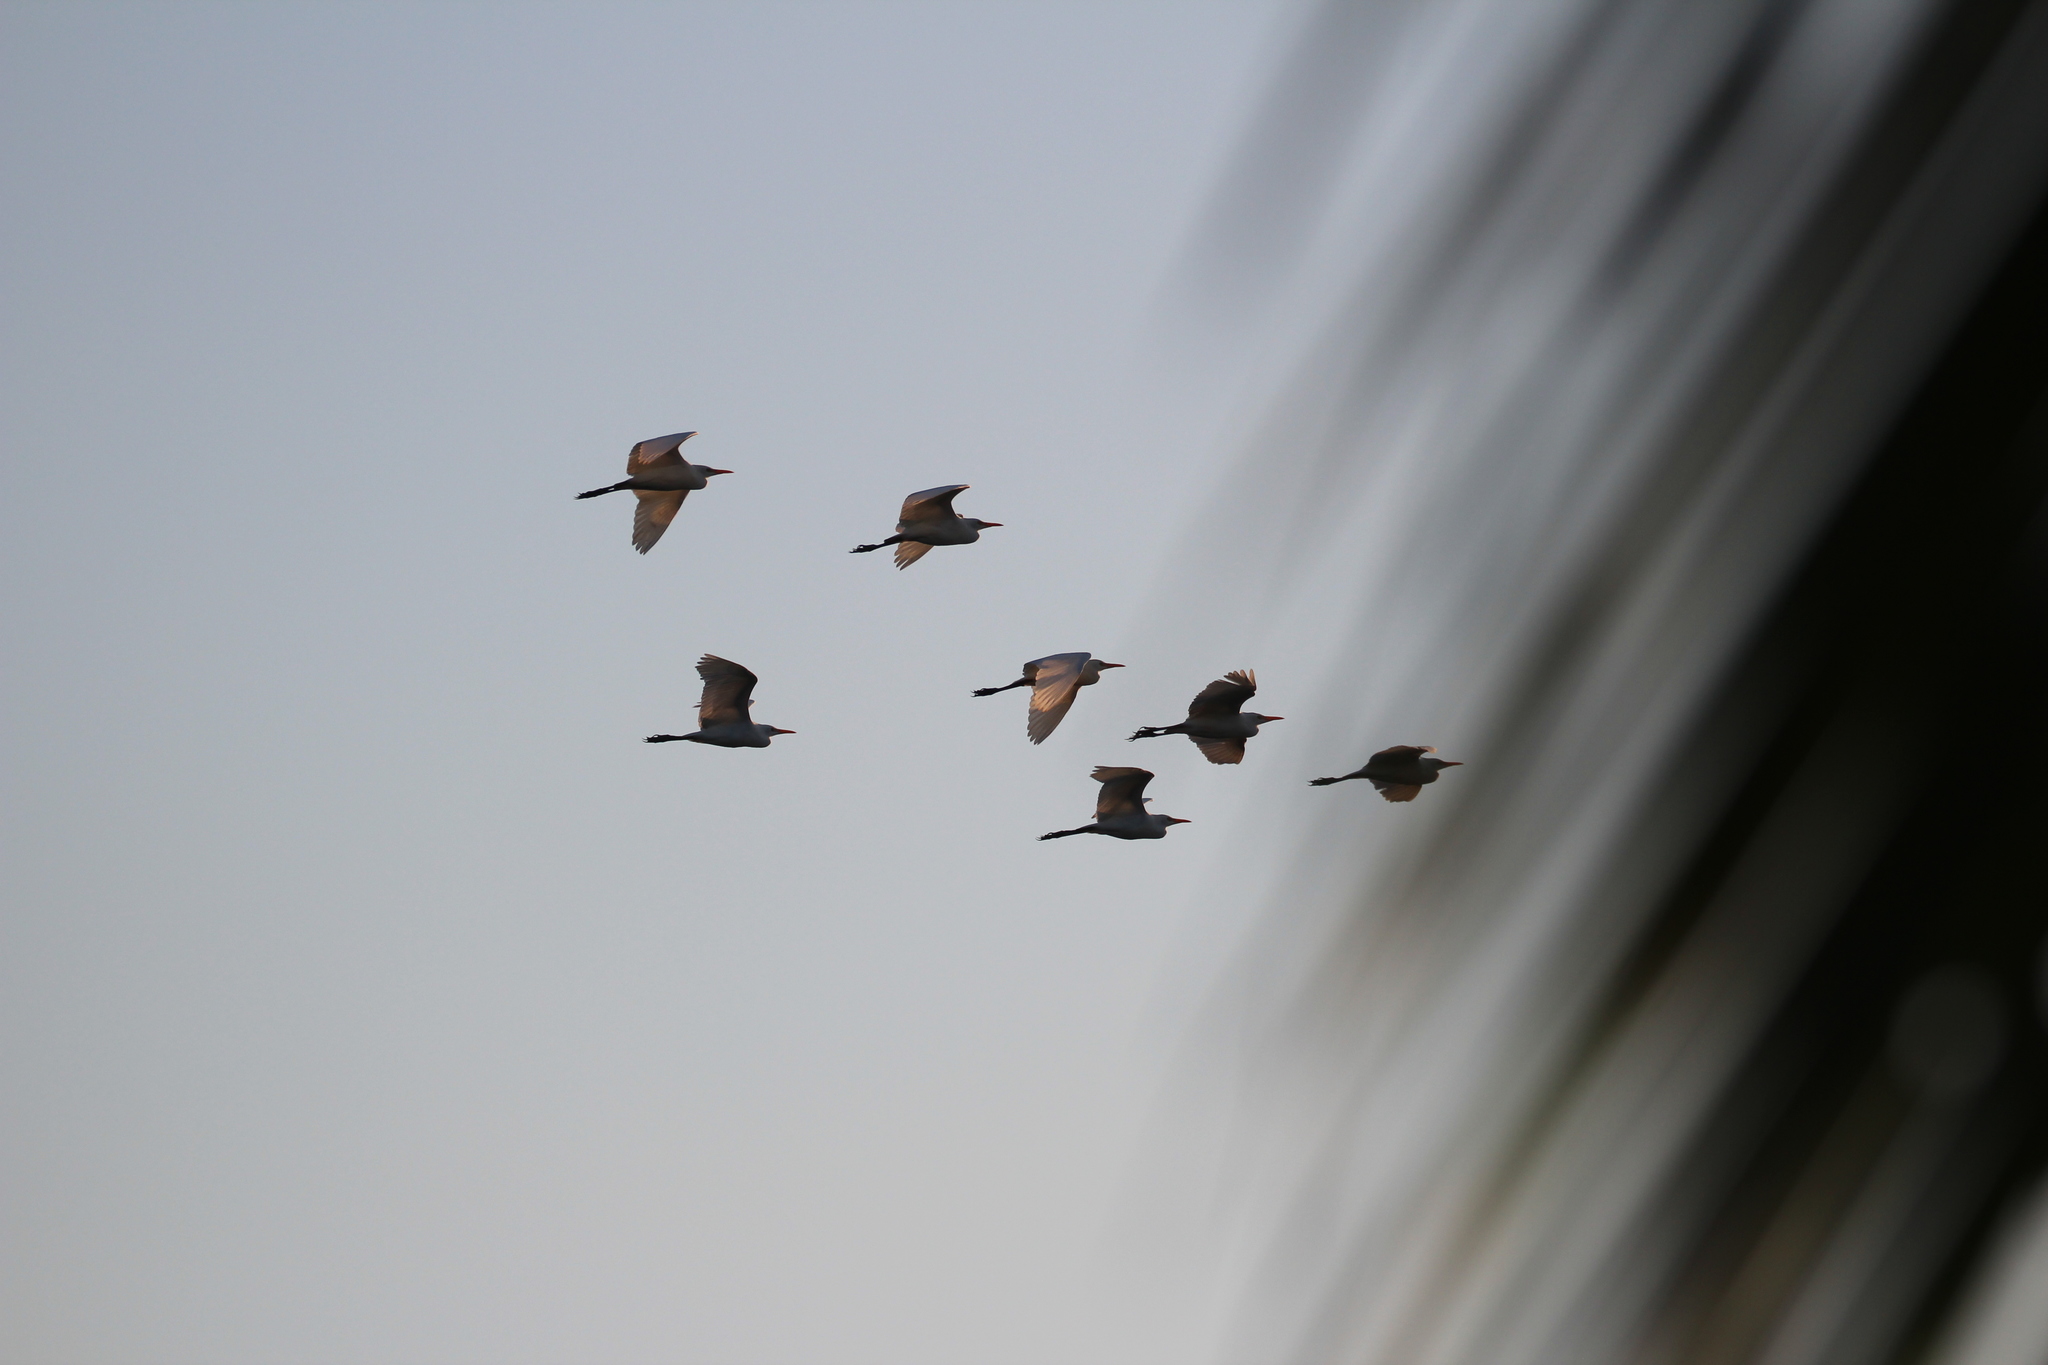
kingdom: Animalia
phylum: Chordata
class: Aves
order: Pelecaniformes
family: Ardeidae
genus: Bubulcus
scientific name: Bubulcus ibis
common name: Cattle egret
